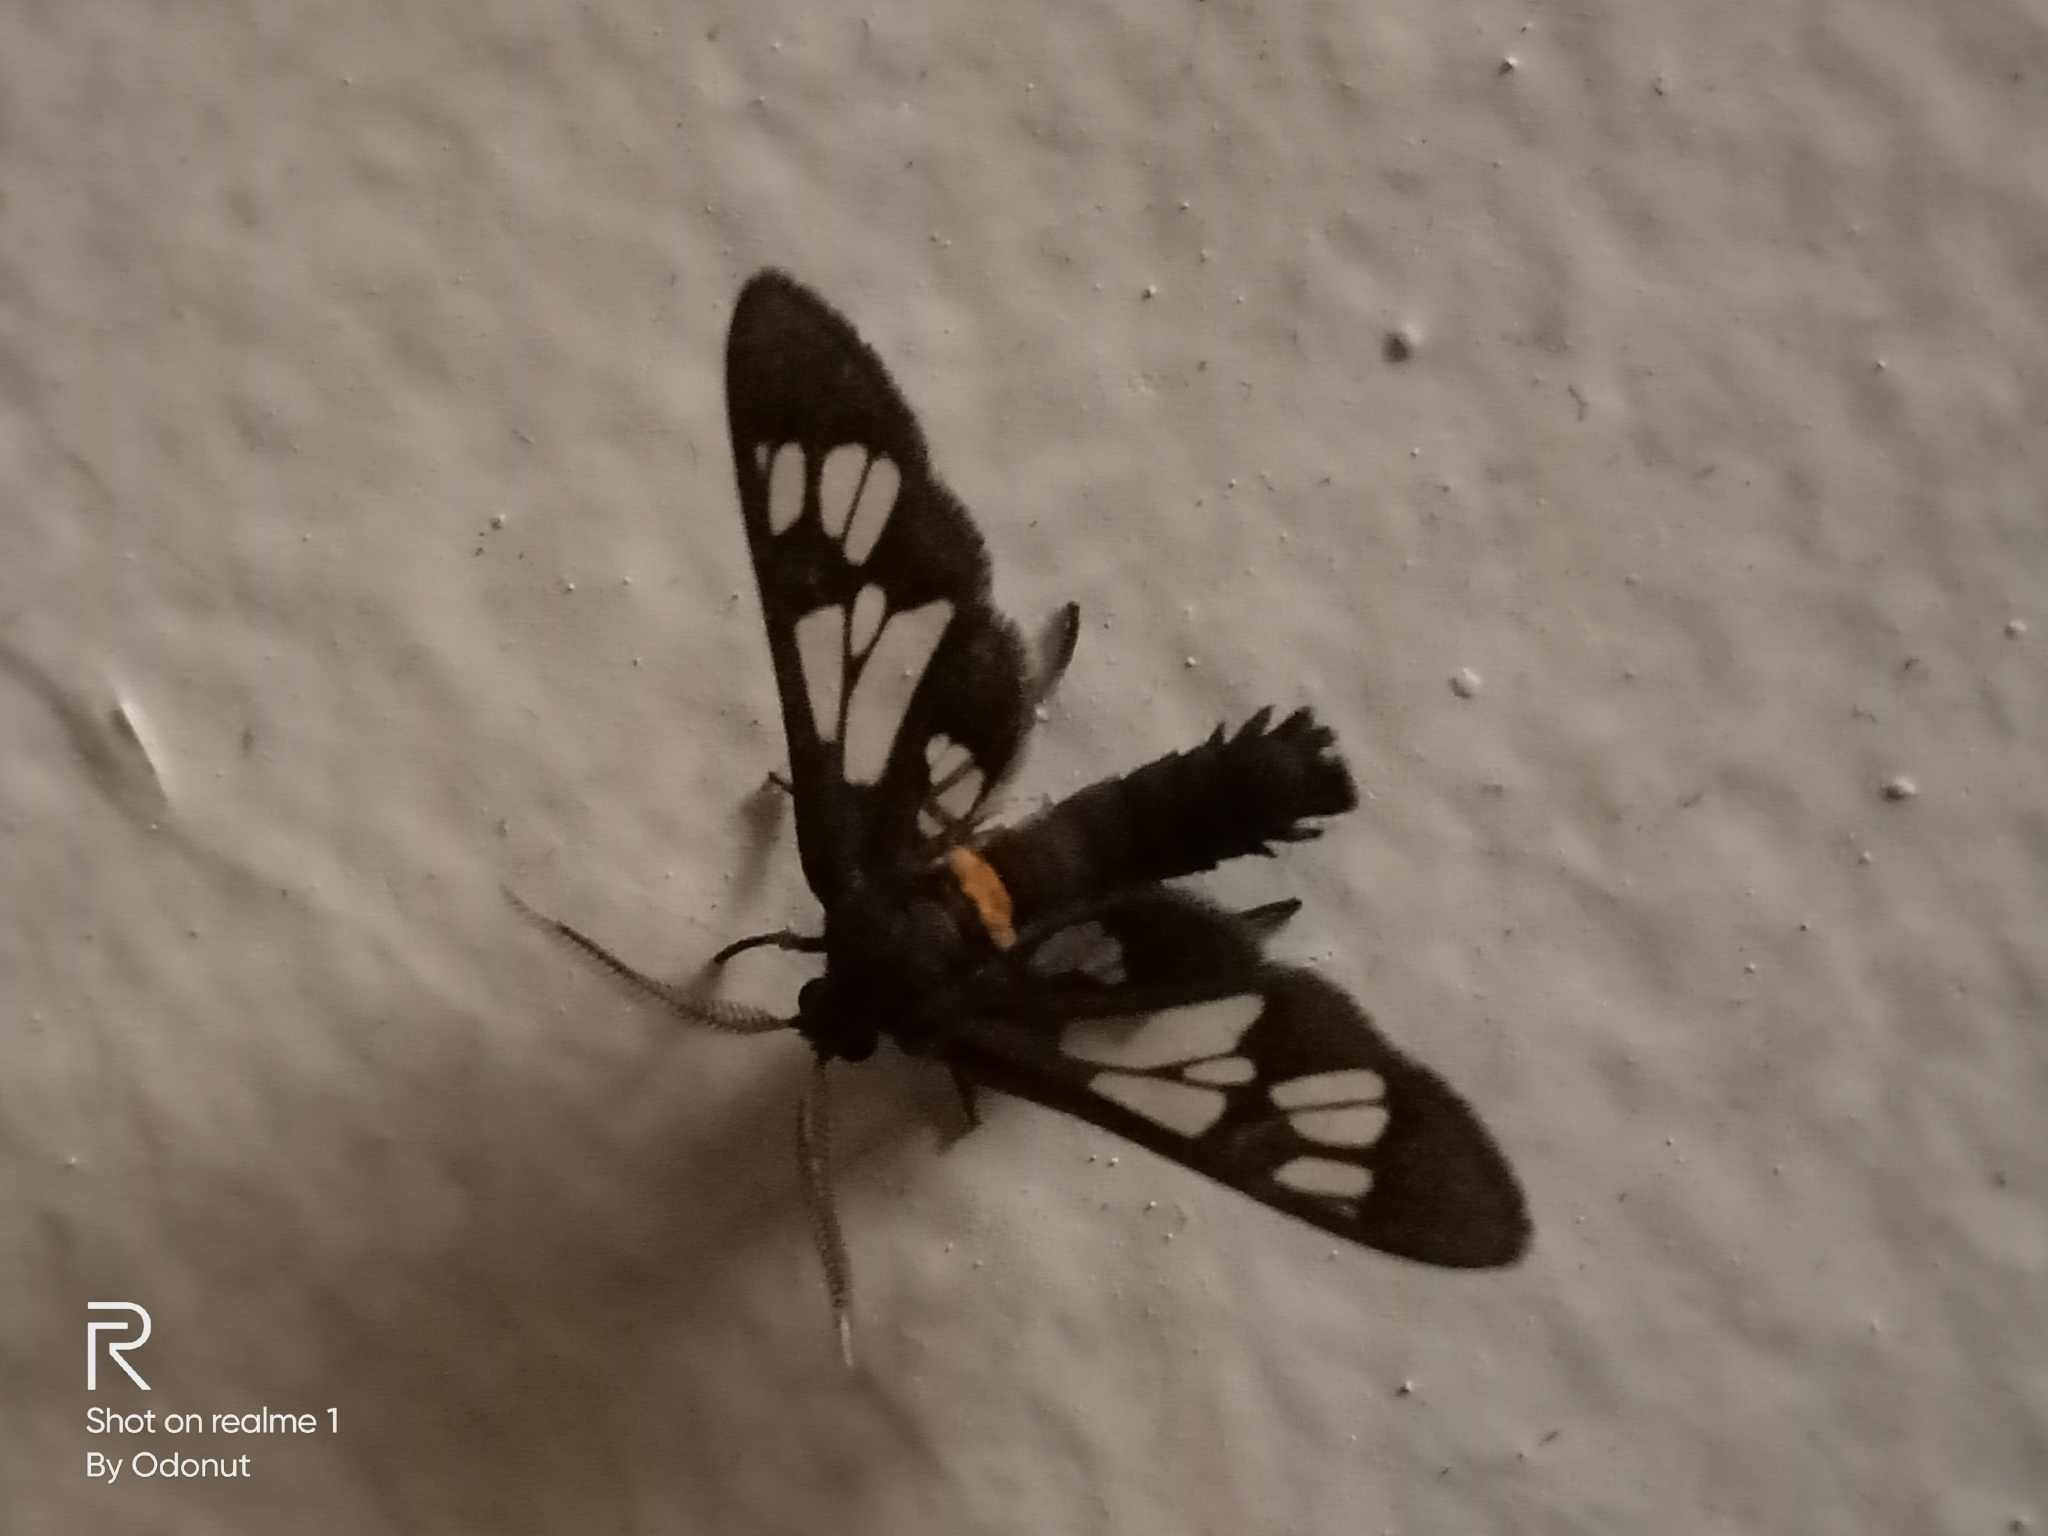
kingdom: Animalia
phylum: Arthropoda
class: Insecta
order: Lepidoptera
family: Erebidae
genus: Eressa
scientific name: Eressa aperiens
